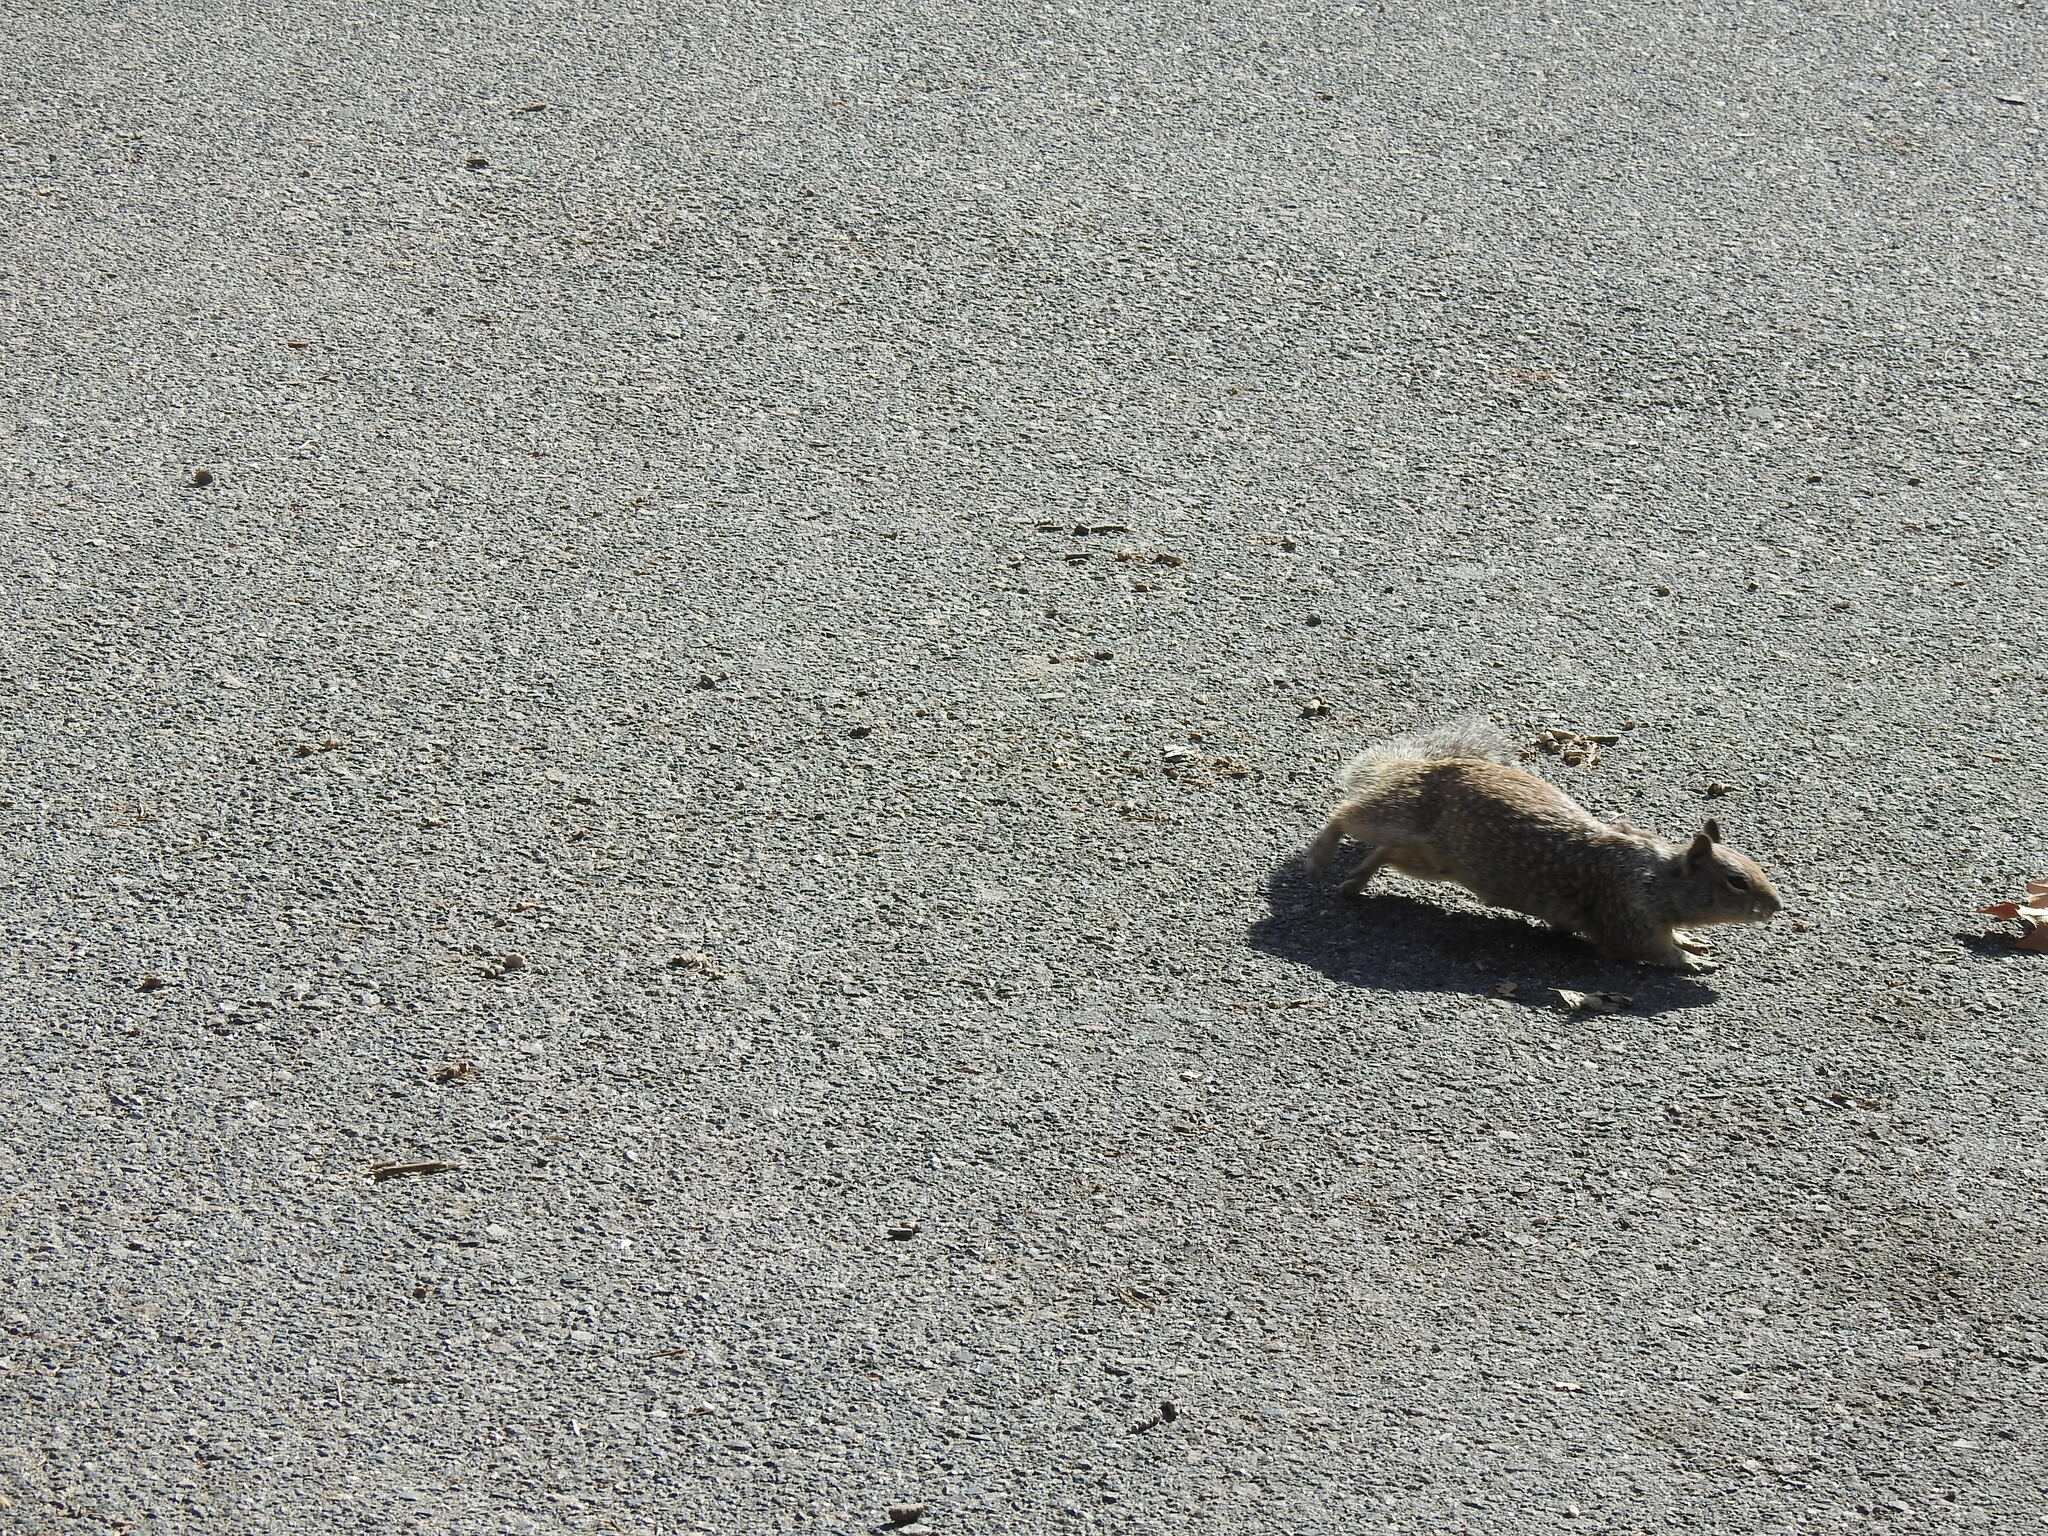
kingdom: Animalia
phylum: Chordata
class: Mammalia
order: Rodentia
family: Sciuridae
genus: Otospermophilus
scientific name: Otospermophilus beecheyi
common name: California ground squirrel
